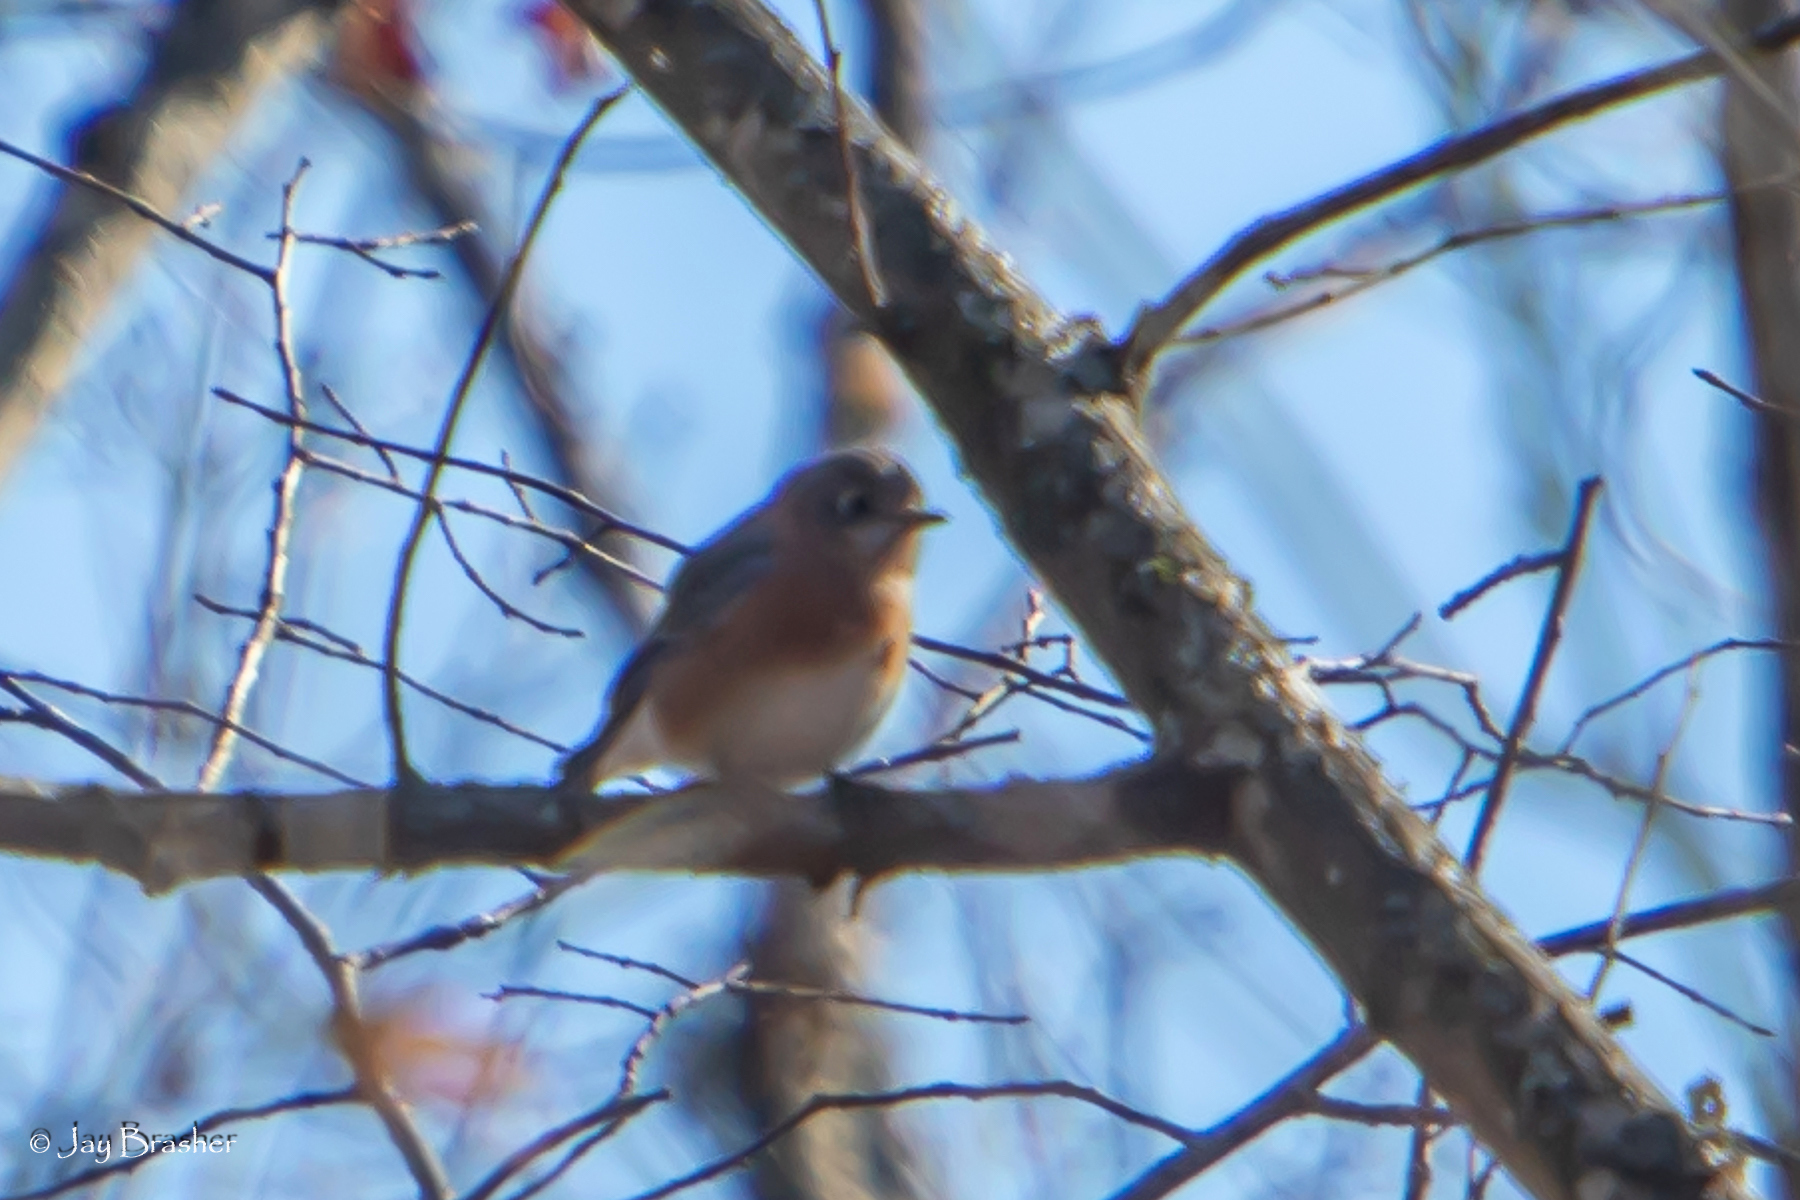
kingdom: Animalia
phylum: Chordata
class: Aves
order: Passeriformes
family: Turdidae
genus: Sialia
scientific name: Sialia sialis
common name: Eastern bluebird
